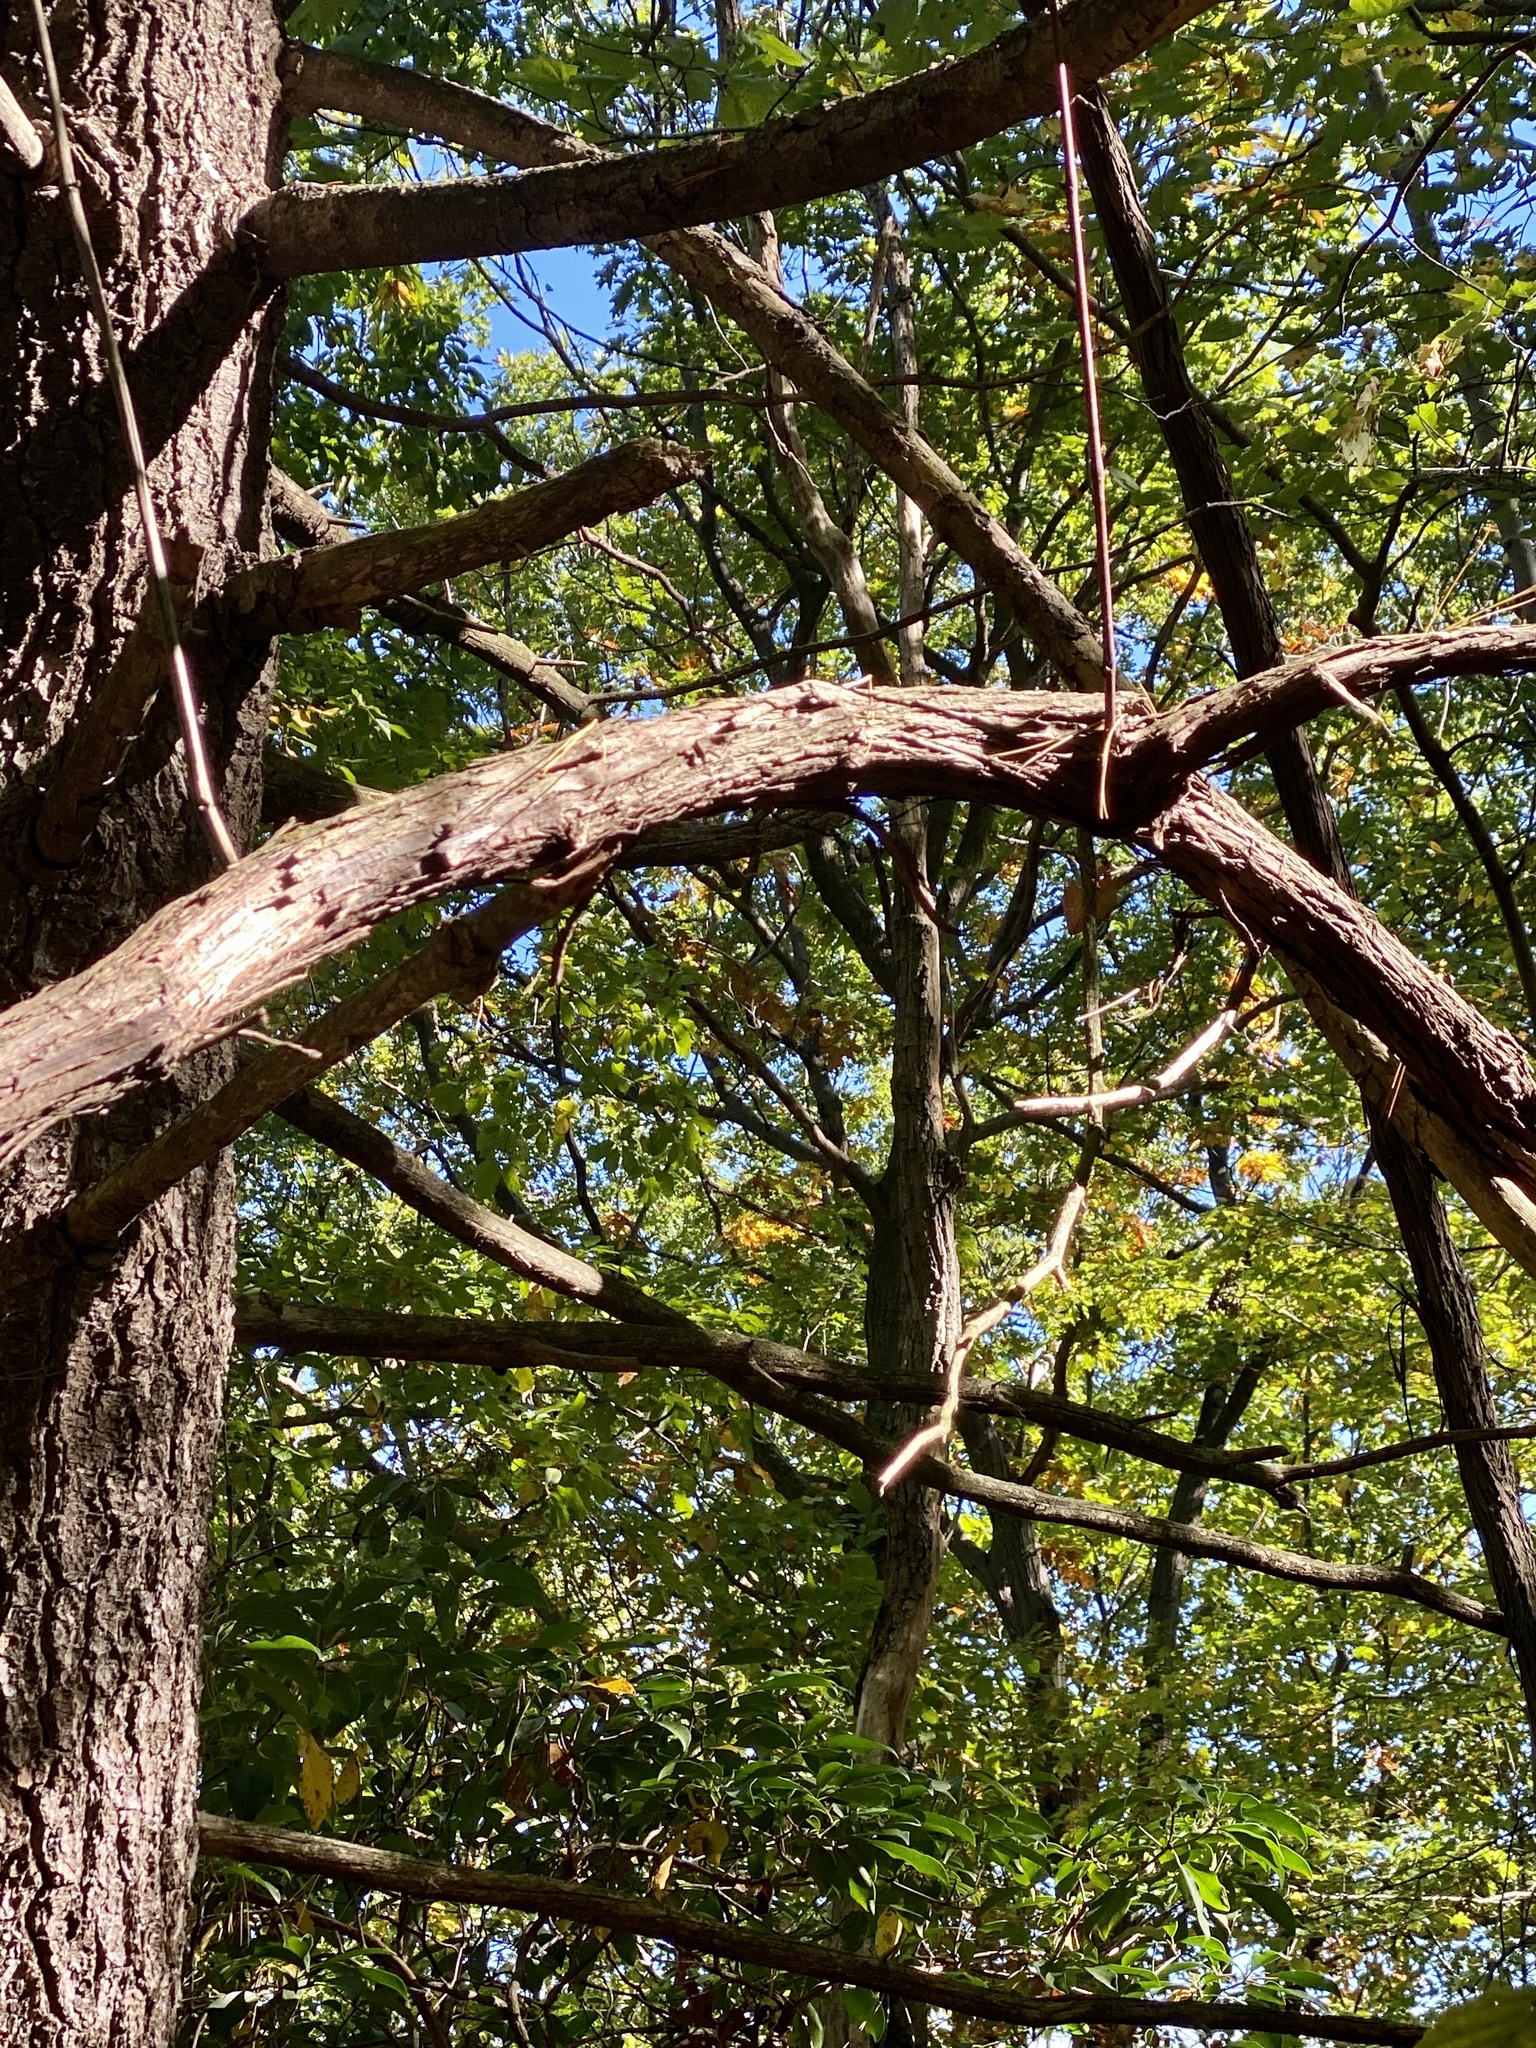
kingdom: Plantae
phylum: Tracheophyta
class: Magnoliopsida
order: Vitales
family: Vitaceae
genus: Vitis
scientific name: Vitis
